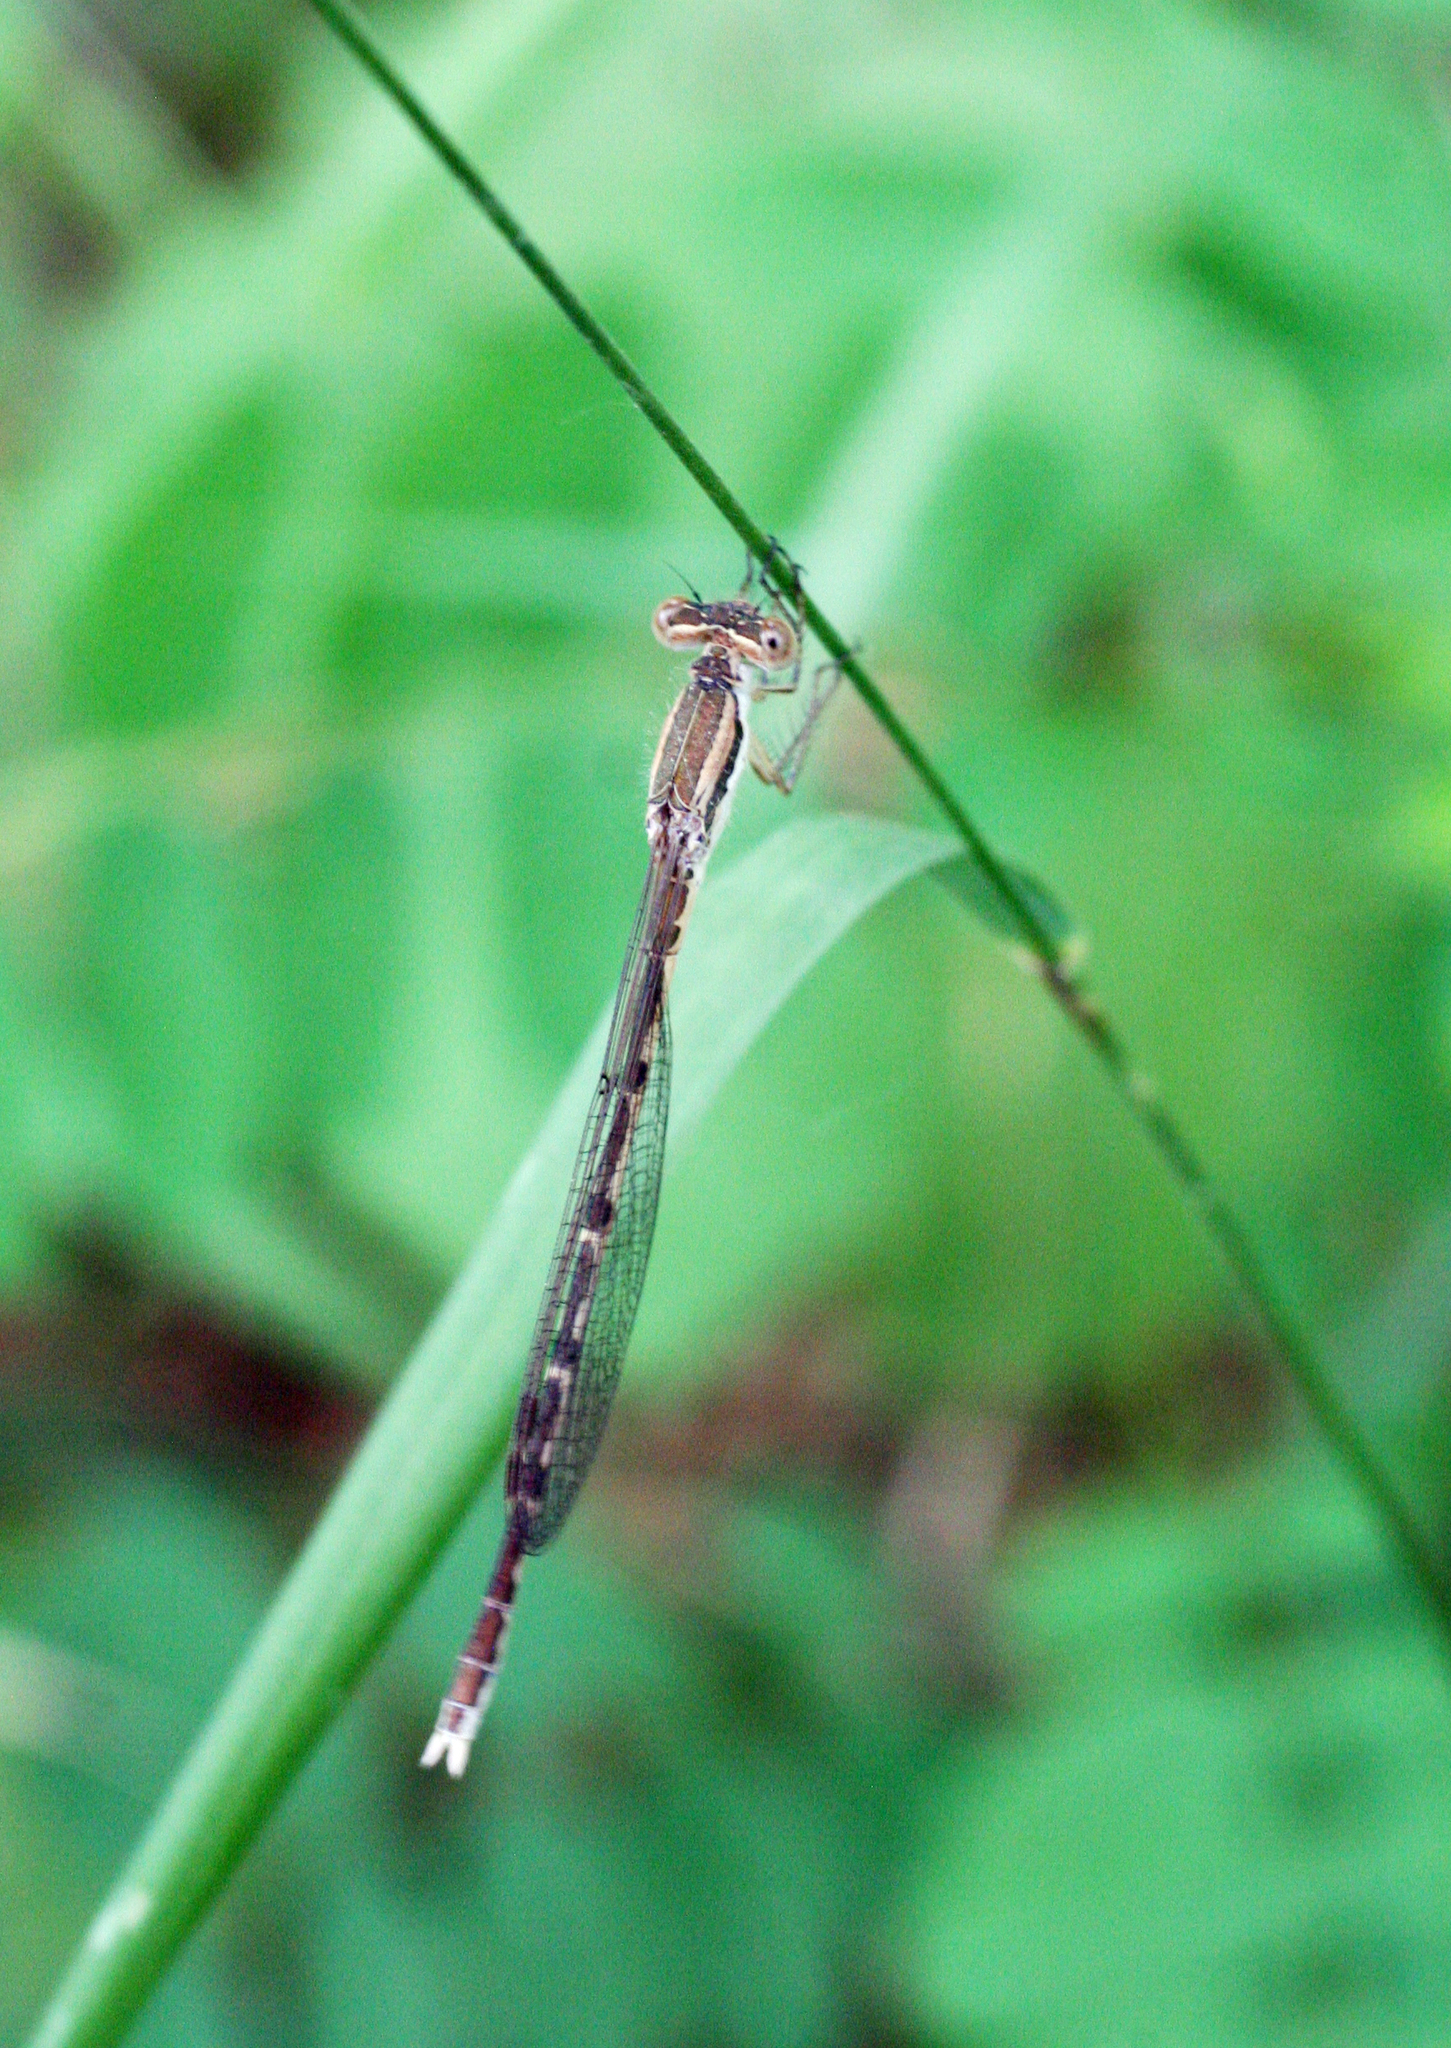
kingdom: Animalia
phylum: Arthropoda
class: Insecta
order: Odonata
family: Lestidae
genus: Sympecma
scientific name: Sympecma fusca
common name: Common winter damsel
